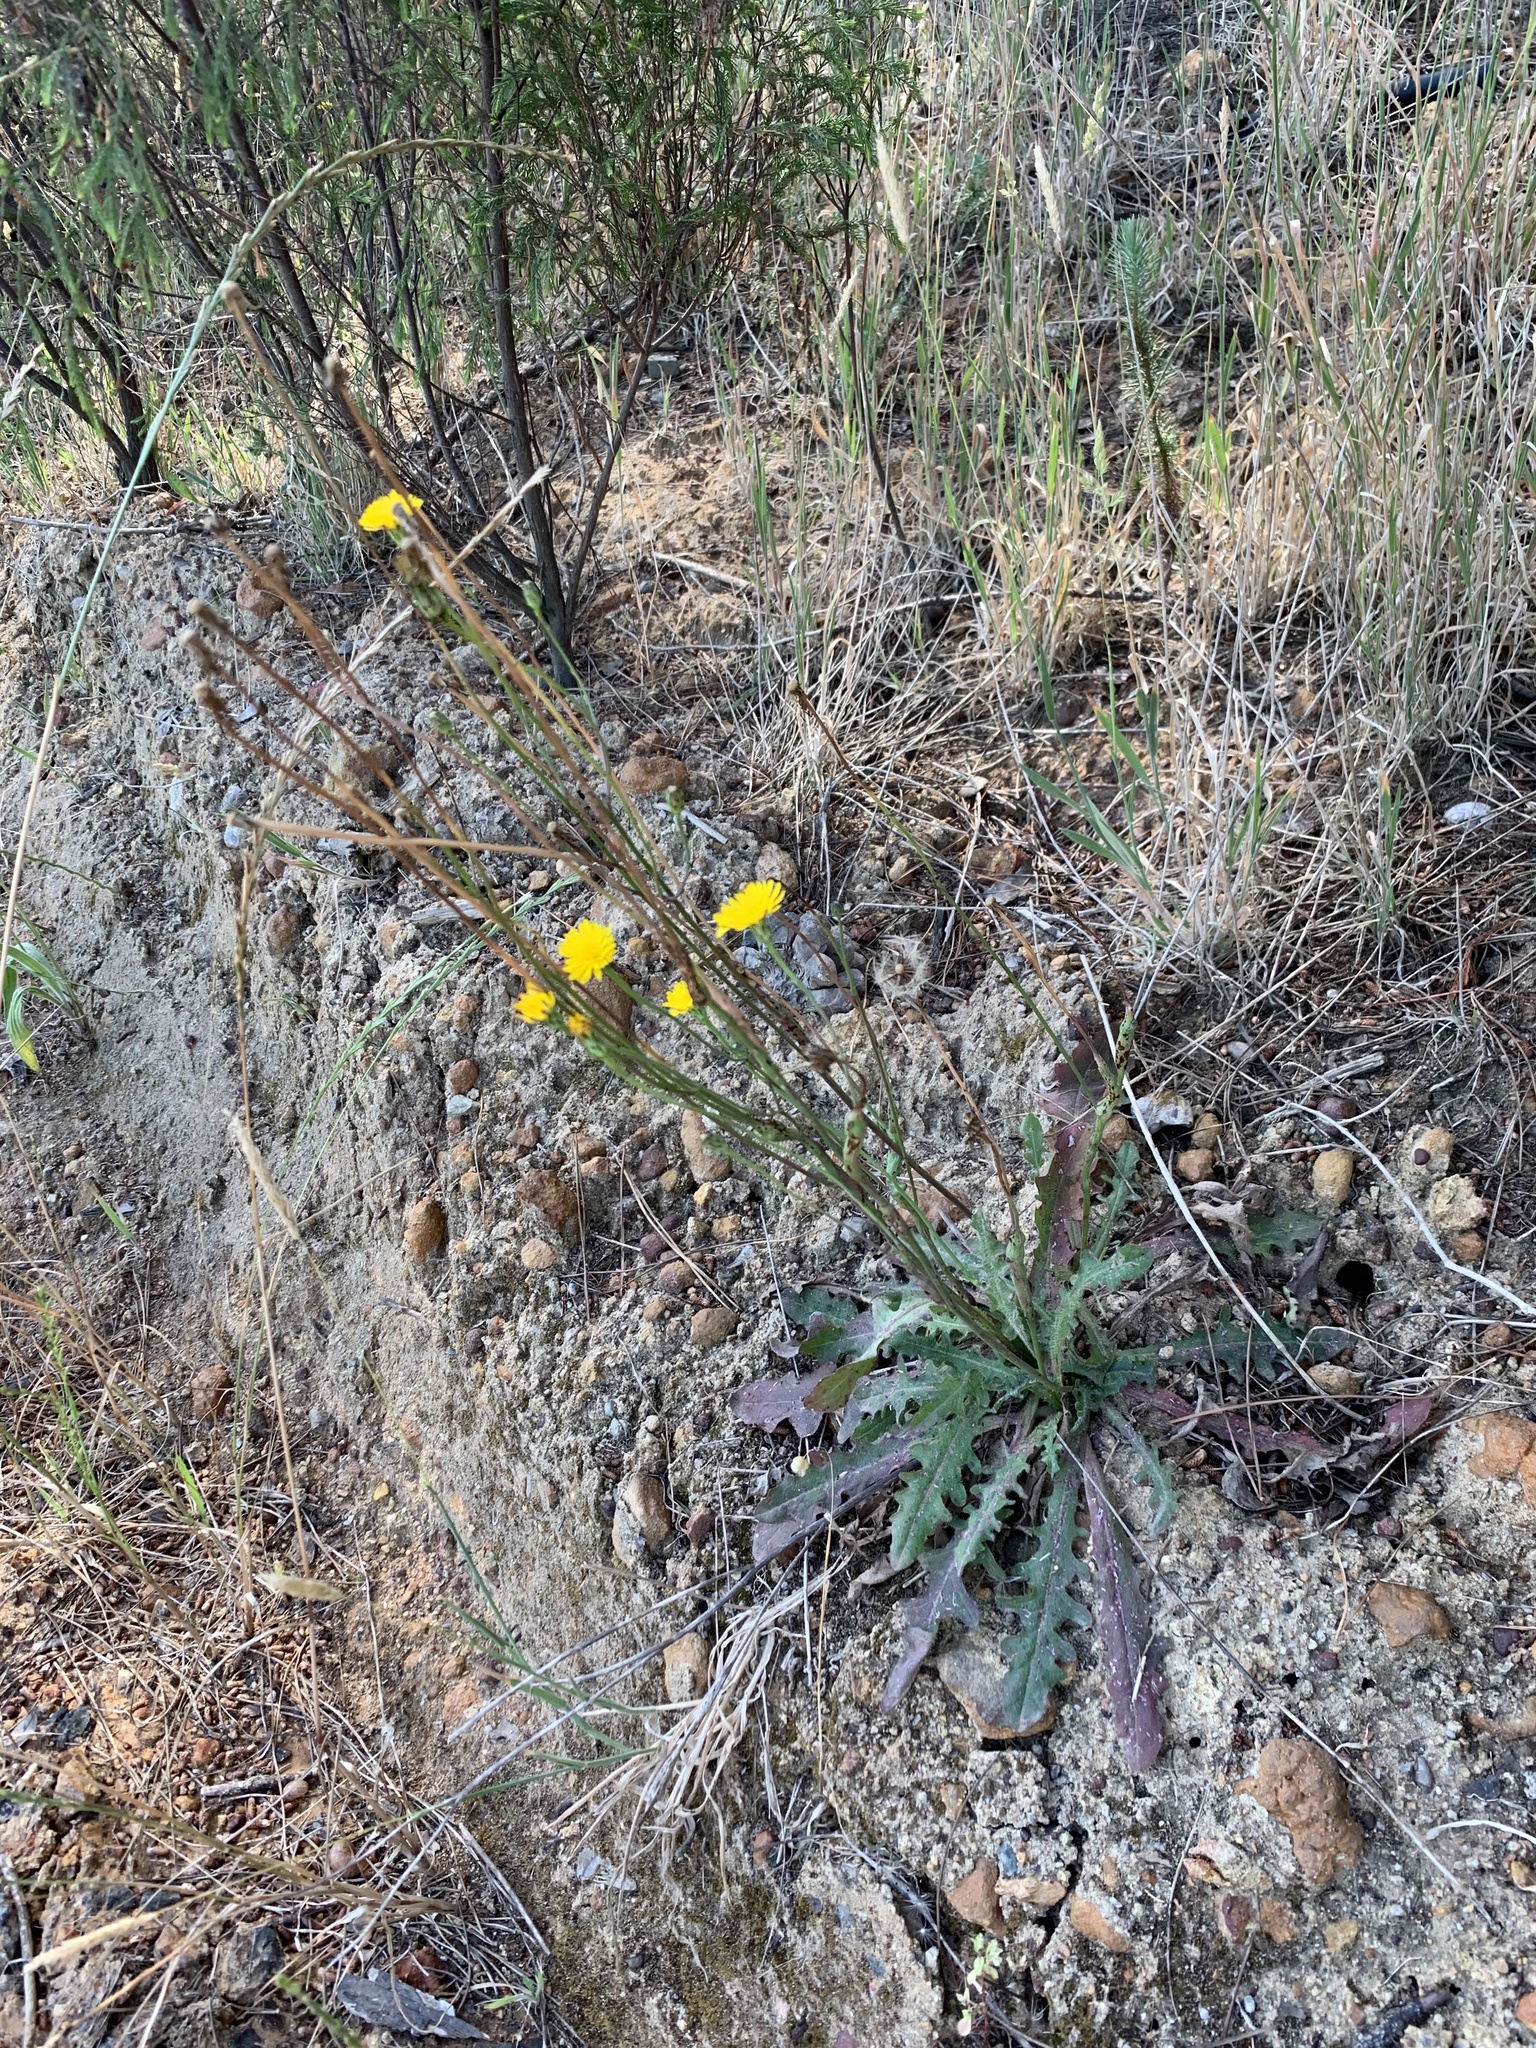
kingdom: Plantae
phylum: Tracheophyta
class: Magnoliopsida
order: Asterales
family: Asteraceae
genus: Hypochaeris
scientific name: Hypochaeris radicata
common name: Flatweed
